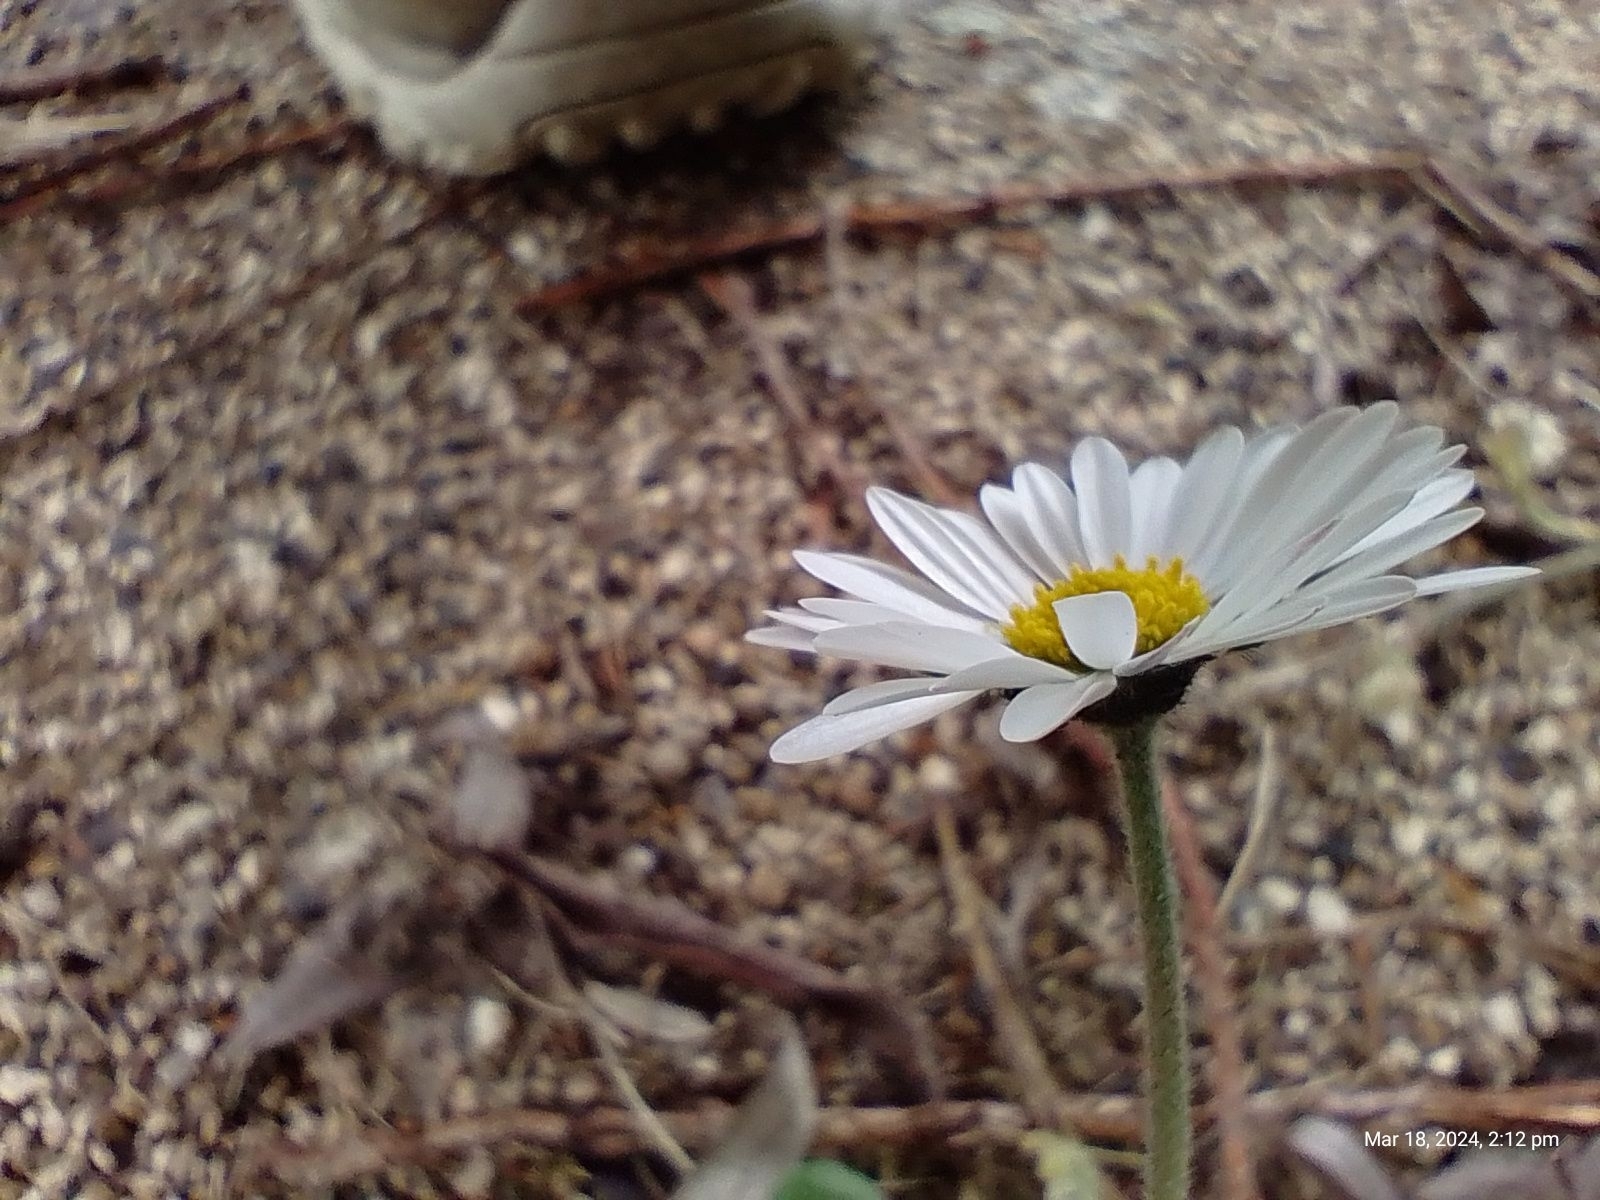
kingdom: Plantae
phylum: Tracheophyta
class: Magnoliopsida
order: Asterales
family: Asteraceae
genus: Bellis
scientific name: Bellis perennis
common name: Lawndaisy
